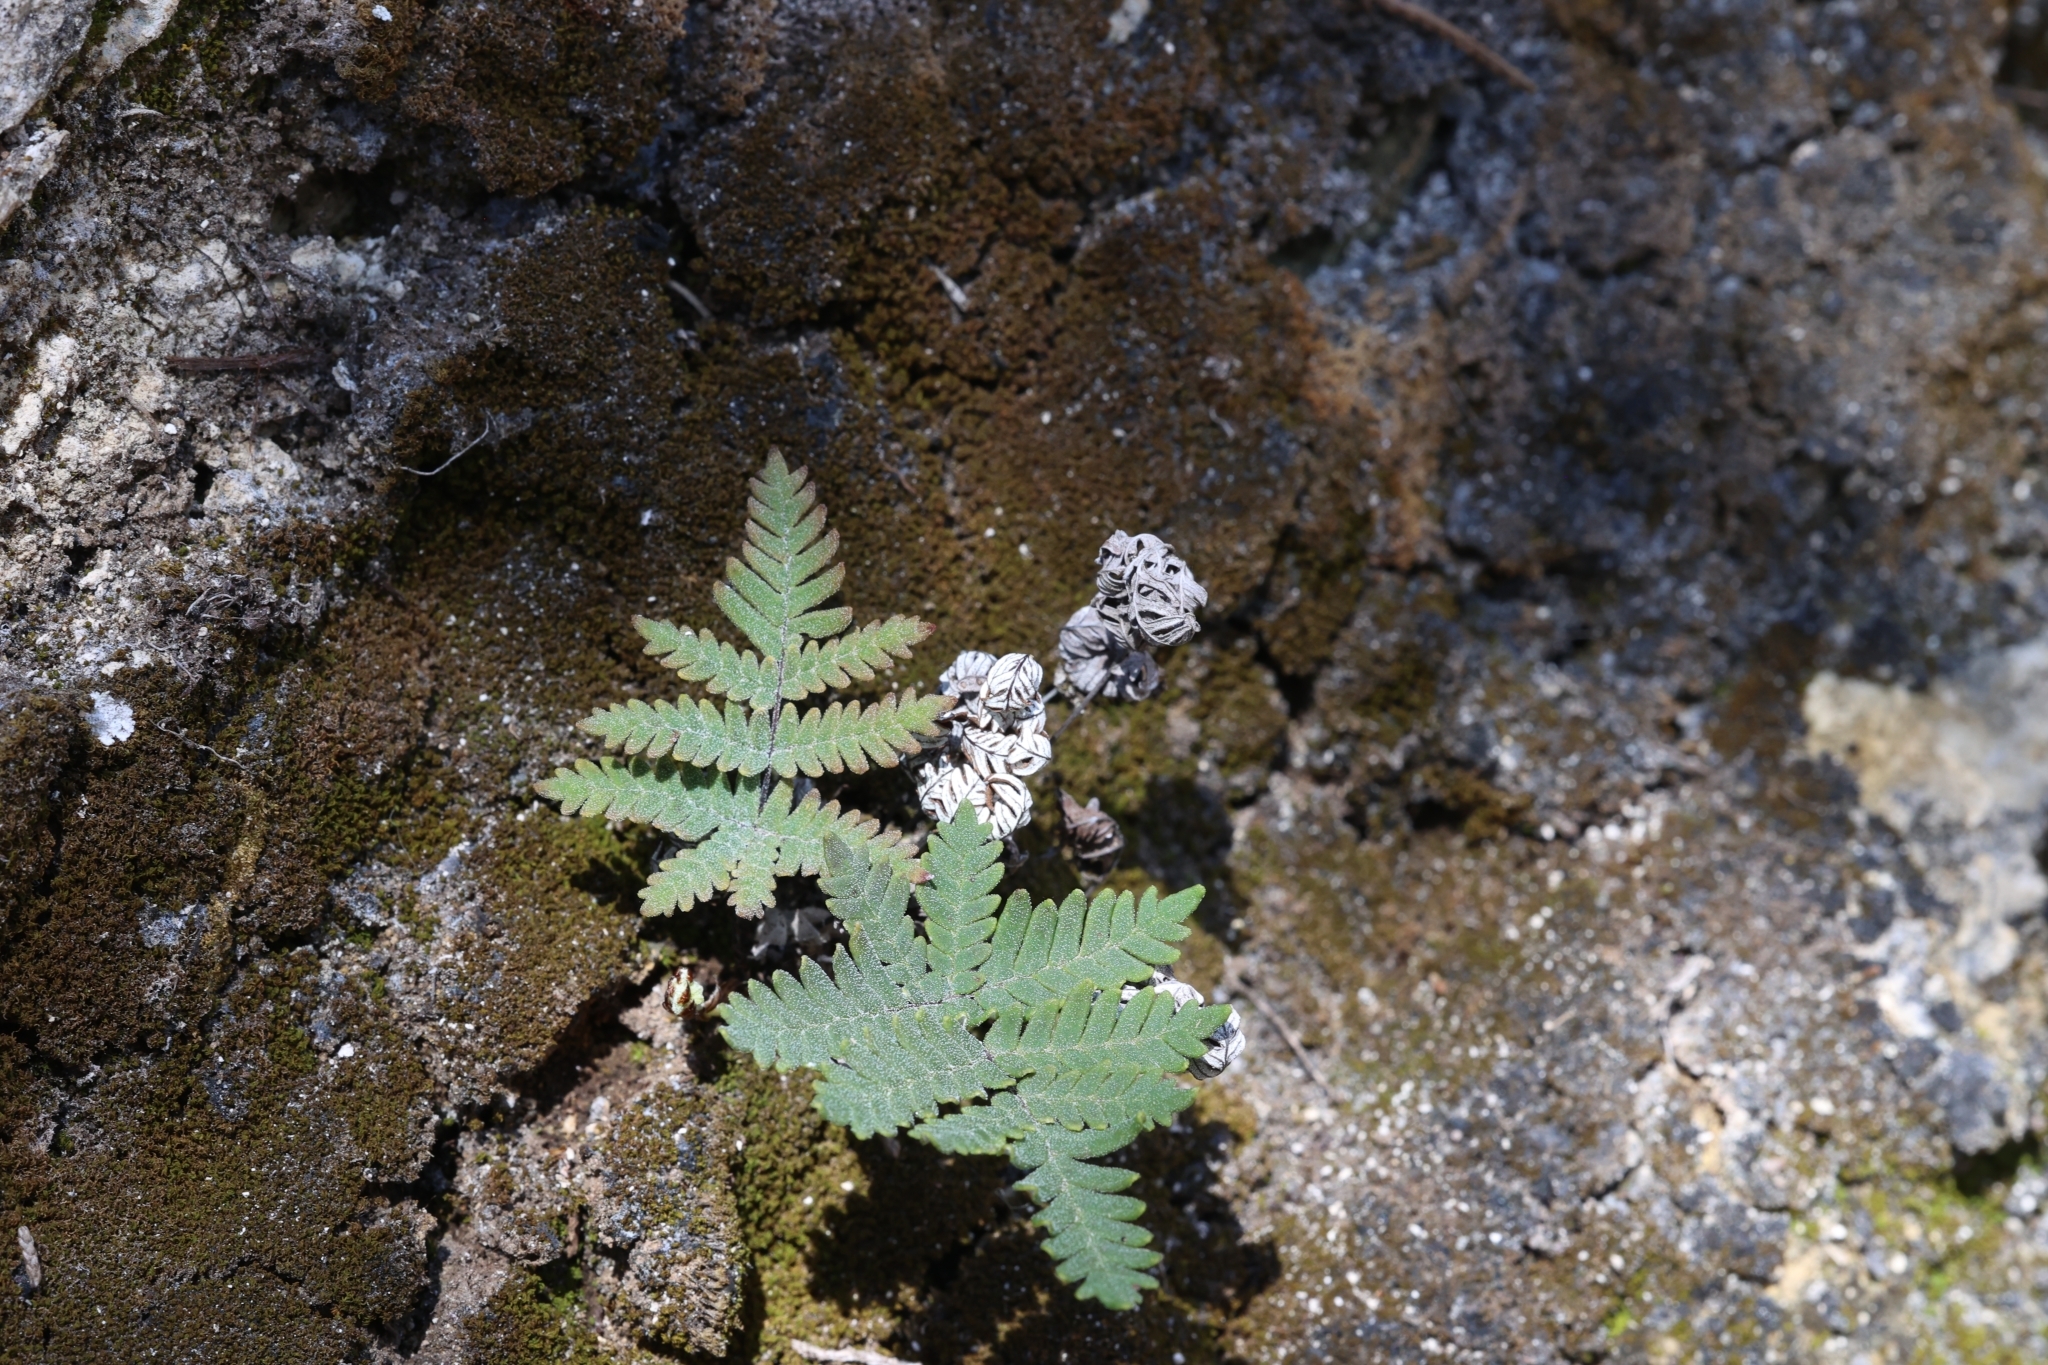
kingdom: Plantae
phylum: Tracheophyta
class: Polypodiopsida
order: Polypodiales
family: Pteridaceae
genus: Notholaena
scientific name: Notholaena candida
